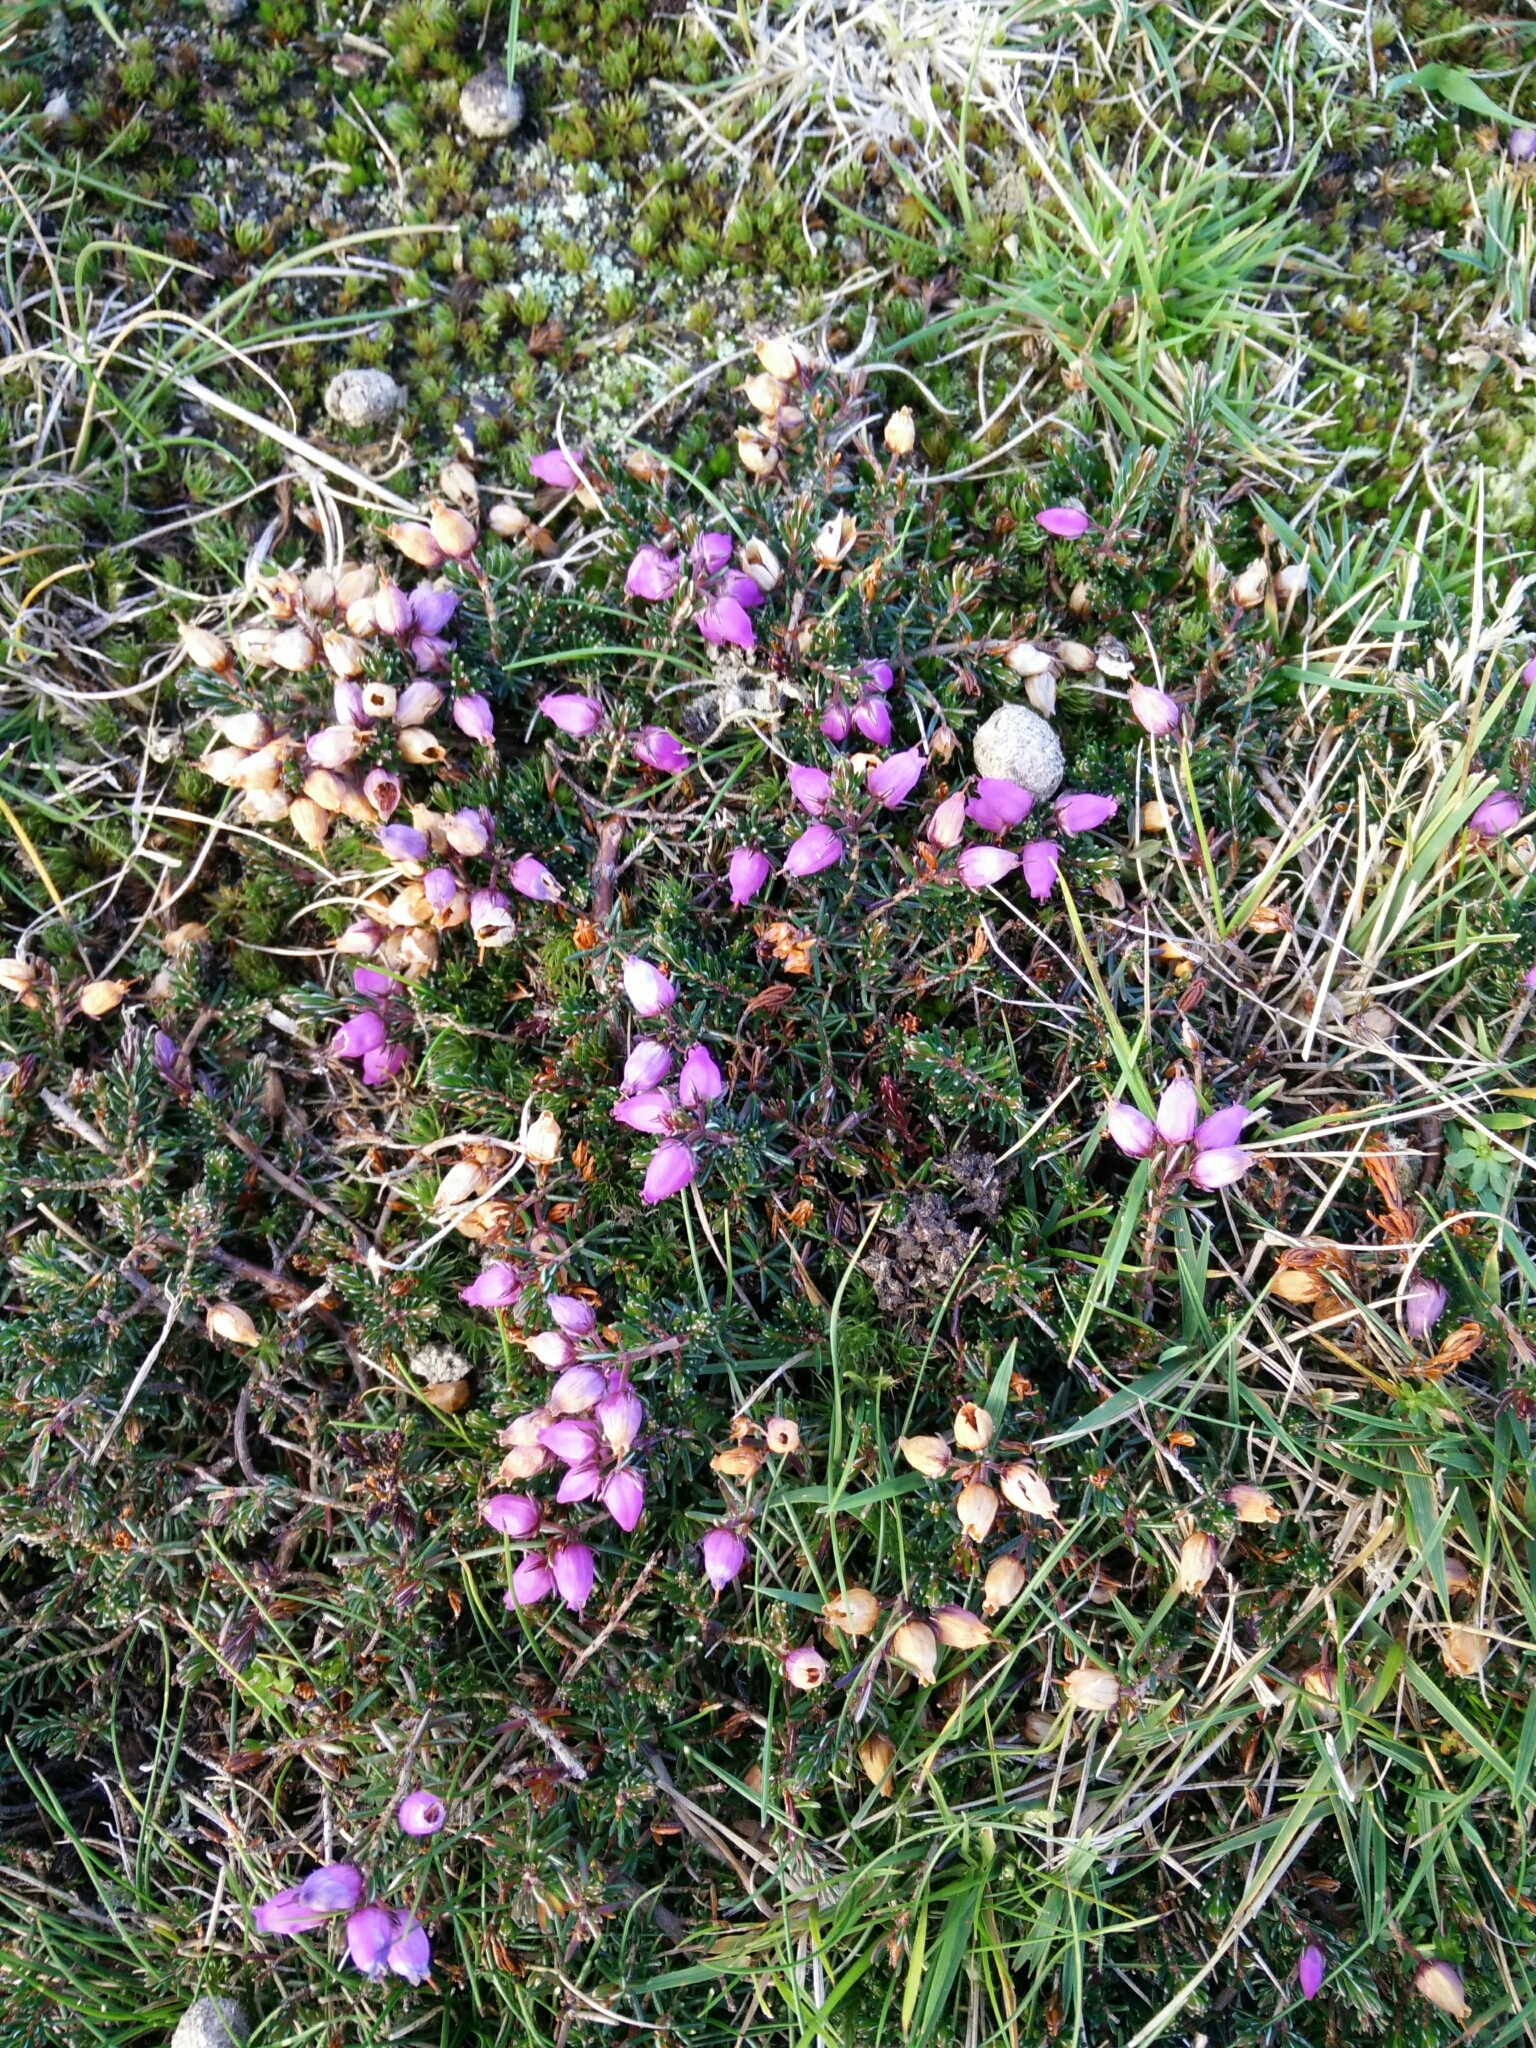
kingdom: Plantae
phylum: Tracheophyta
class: Magnoliopsida
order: Ericales
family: Ericaceae
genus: Erica
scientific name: Erica cinerea
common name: Bell heather
